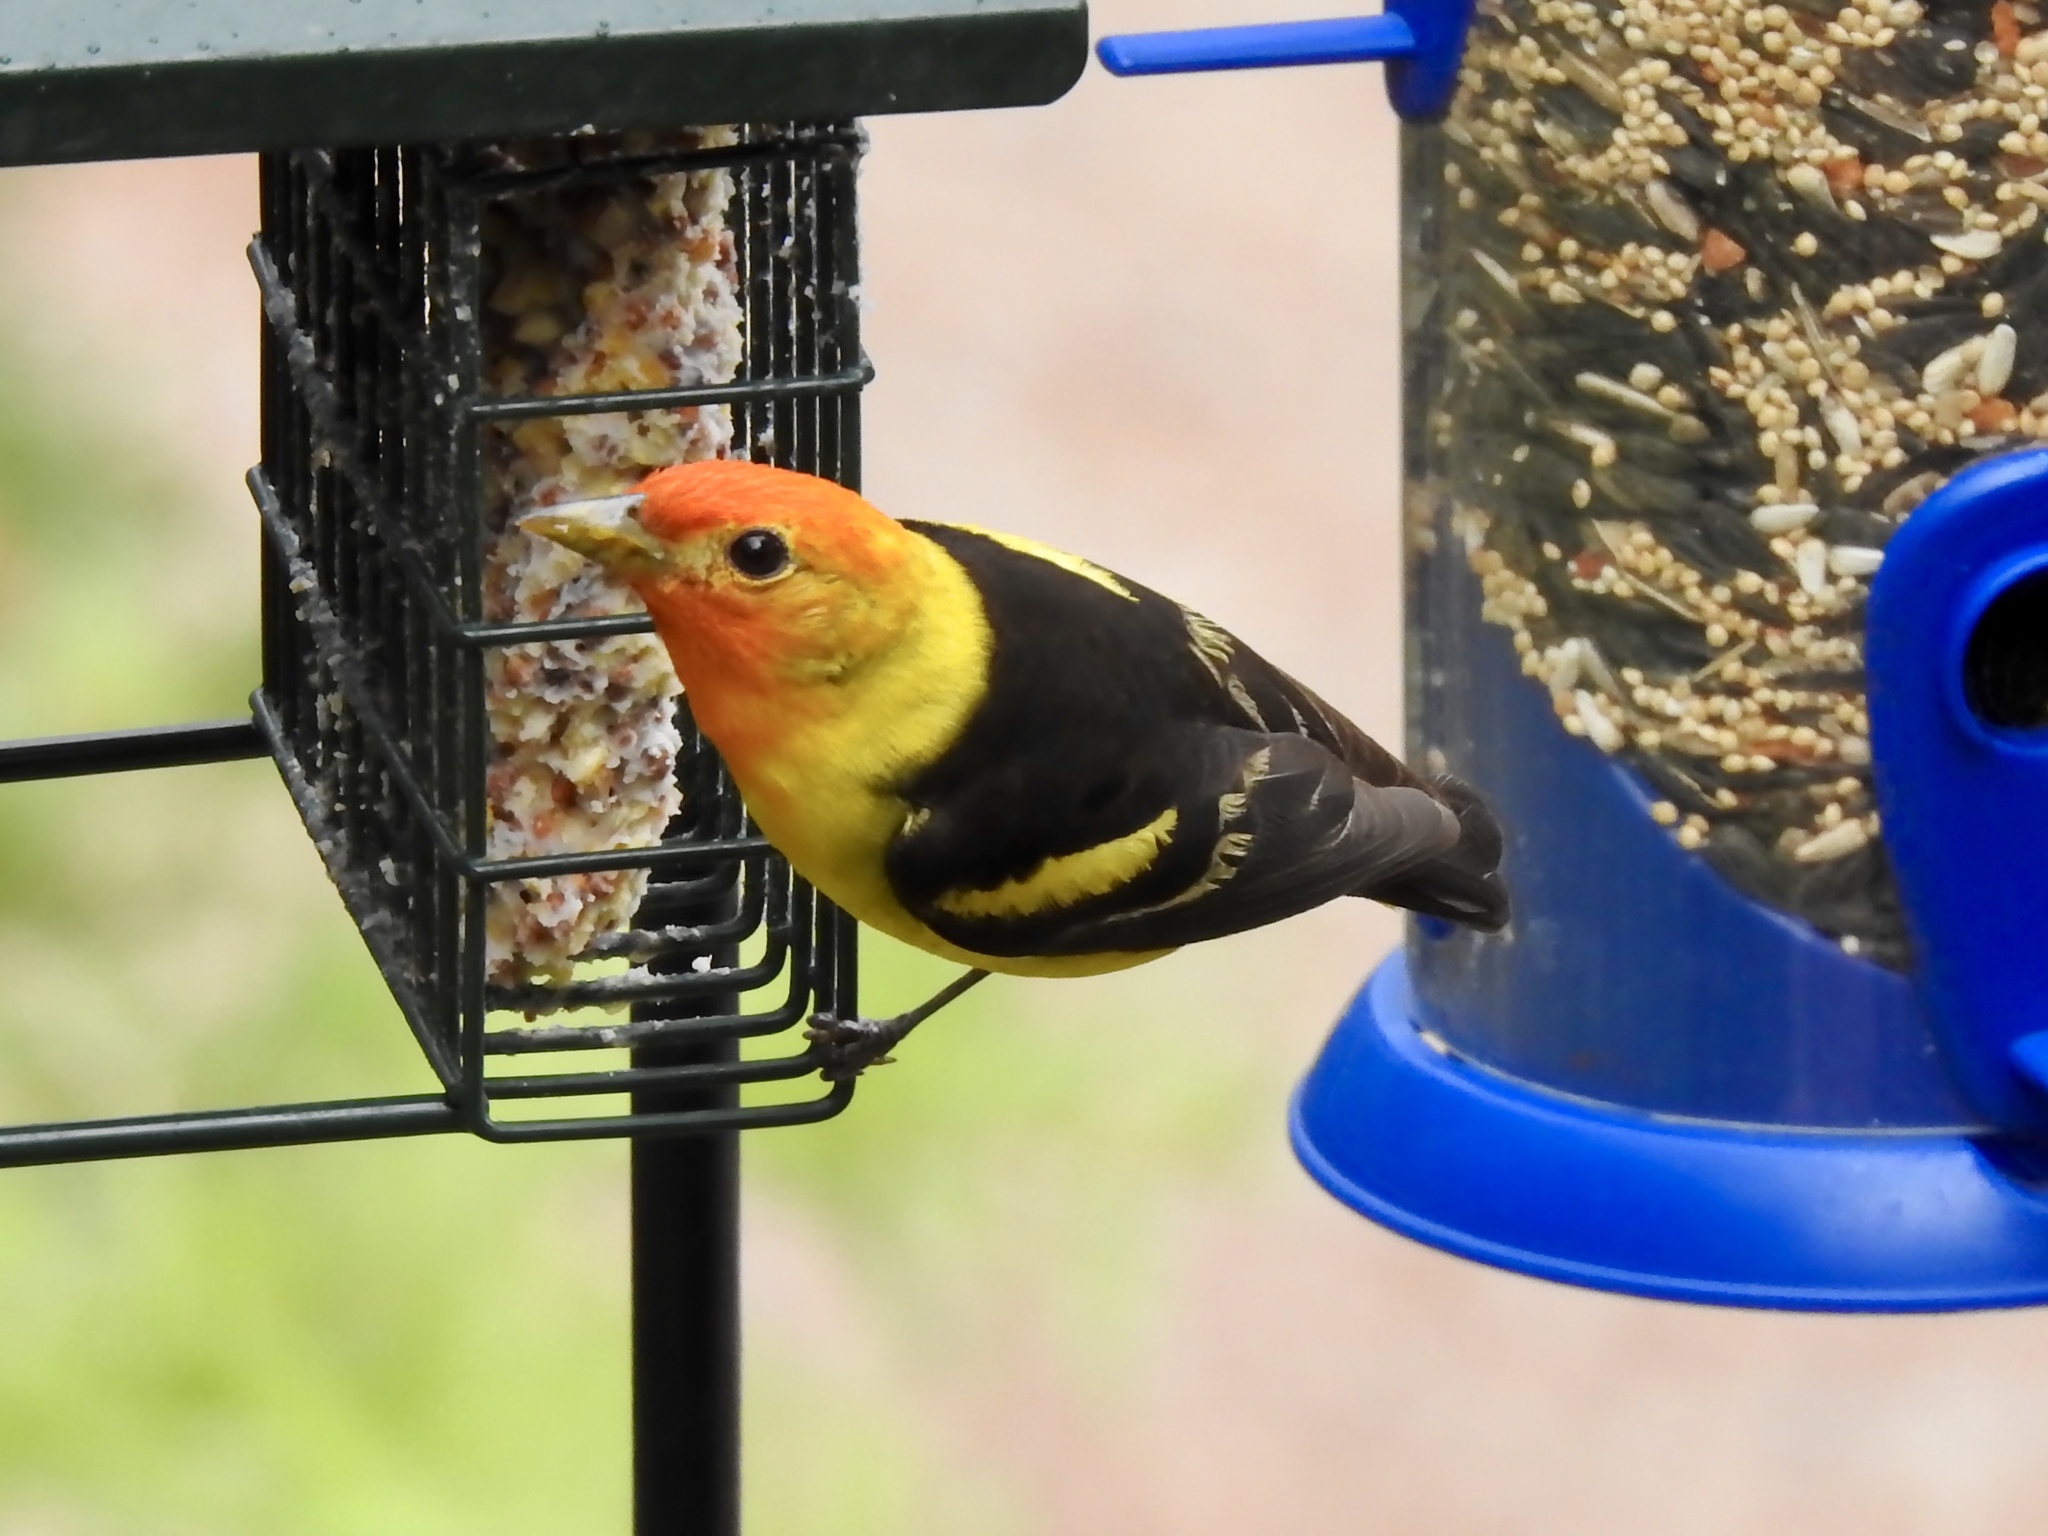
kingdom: Animalia
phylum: Chordata
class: Aves
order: Passeriformes
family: Cardinalidae
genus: Piranga
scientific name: Piranga ludoviciana
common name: Western tanager
